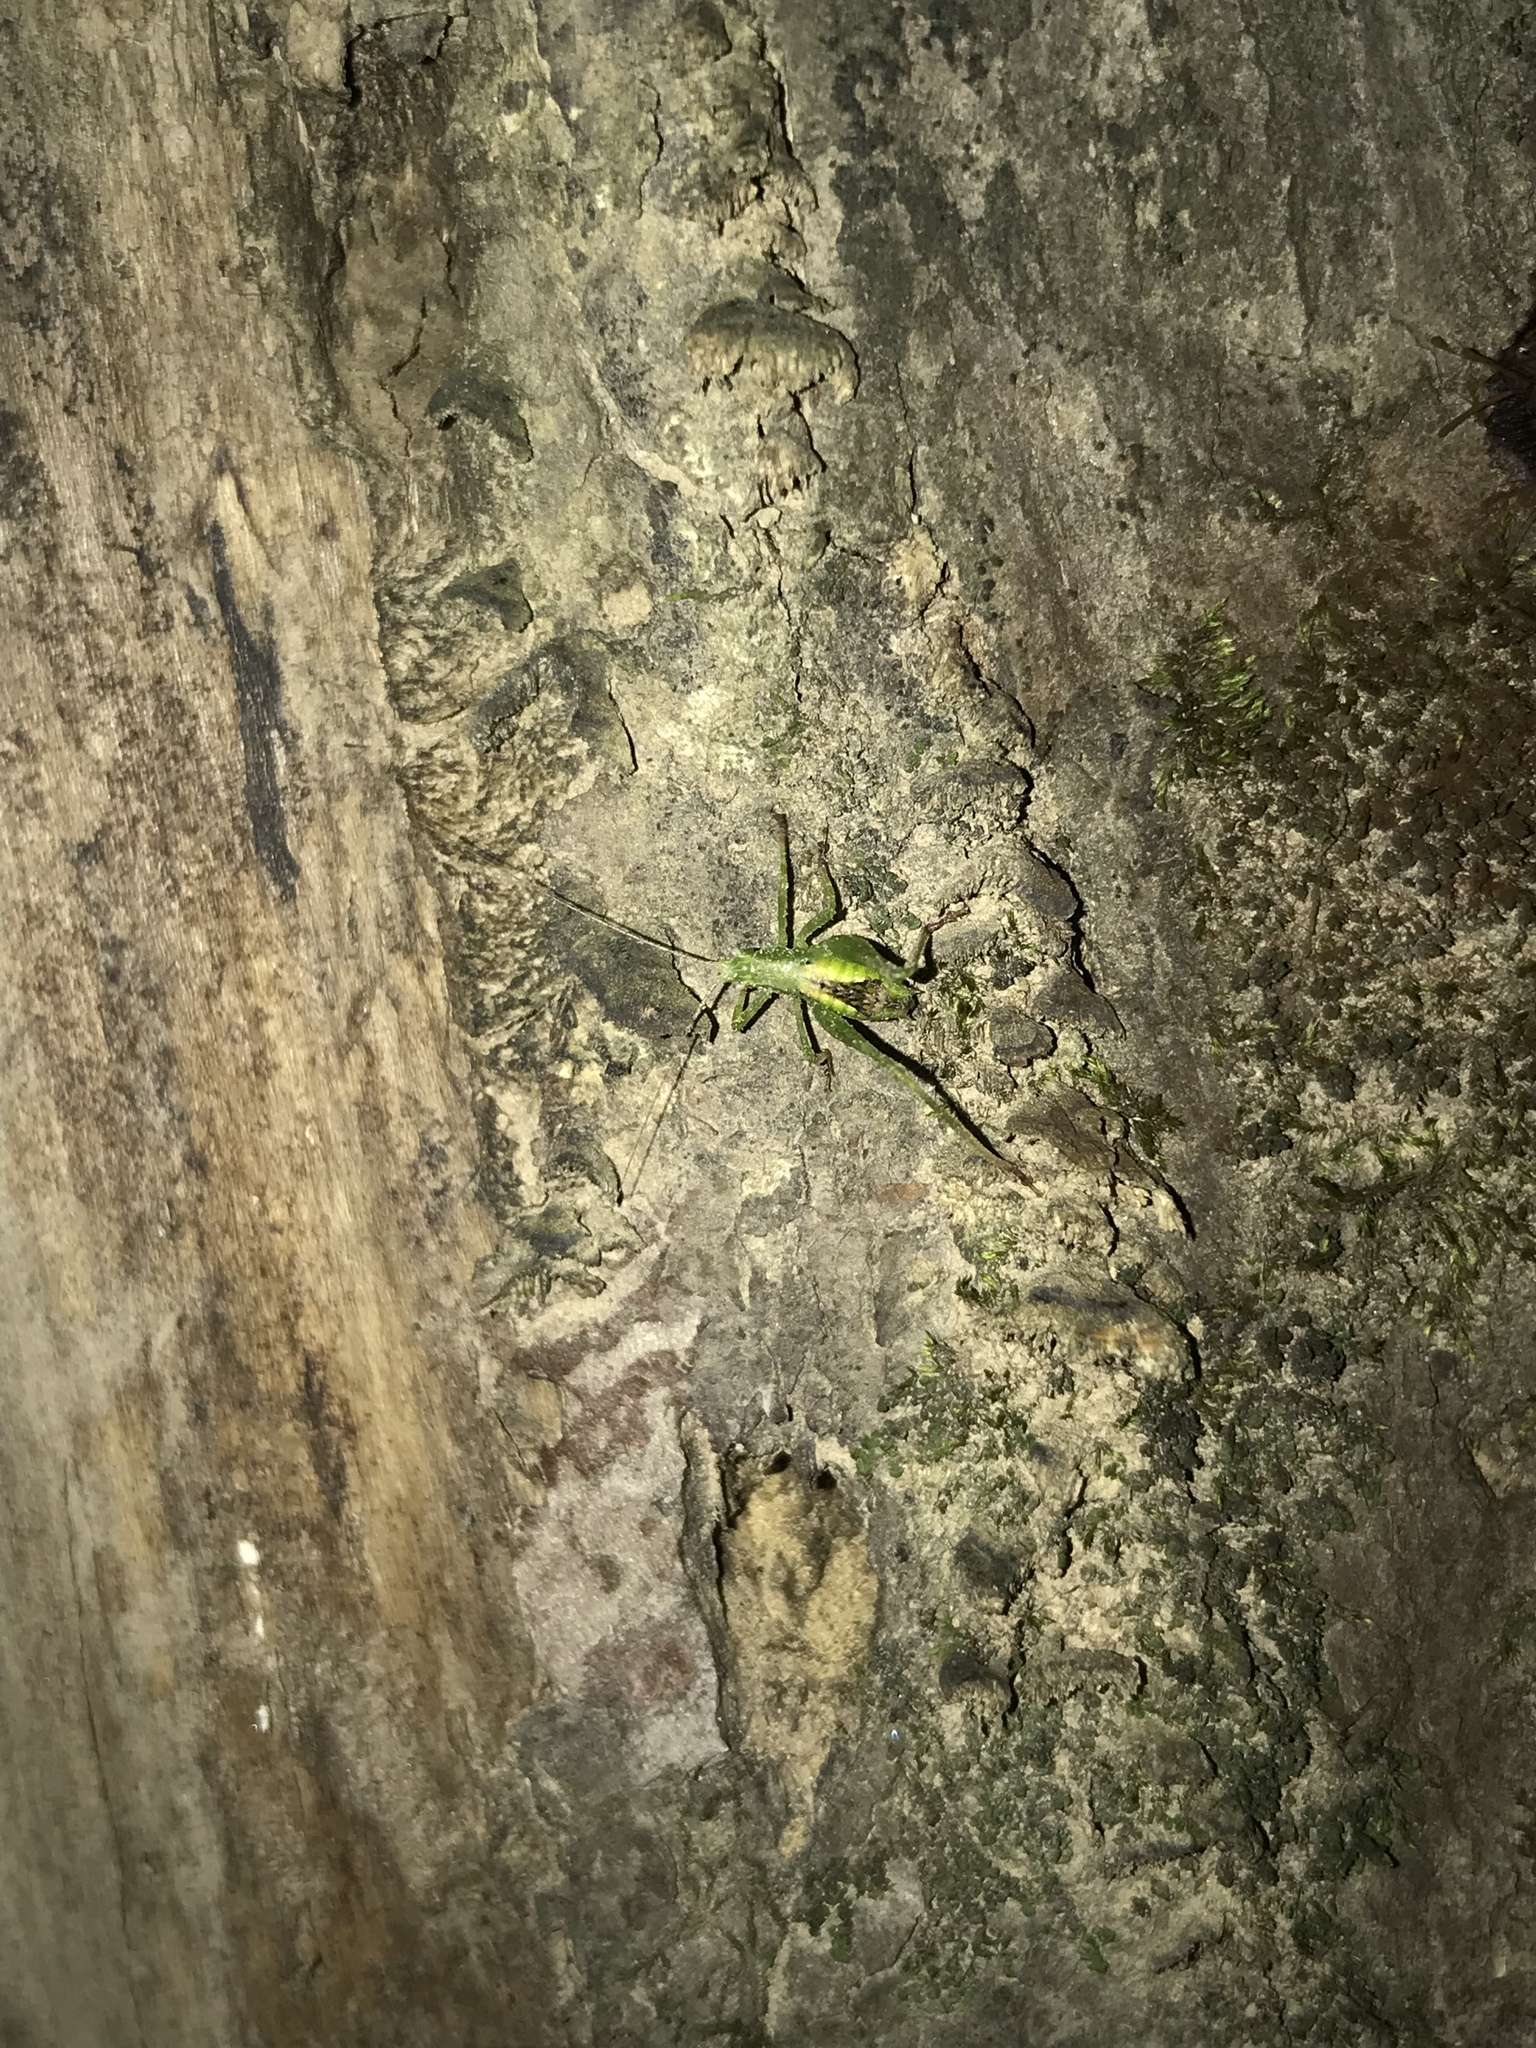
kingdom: Animalia
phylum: Arthropoda
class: Insecta
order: Orthoptera
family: Tettigoniidae
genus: Montezumina
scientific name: Montezumina modesta
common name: Modest katydid
